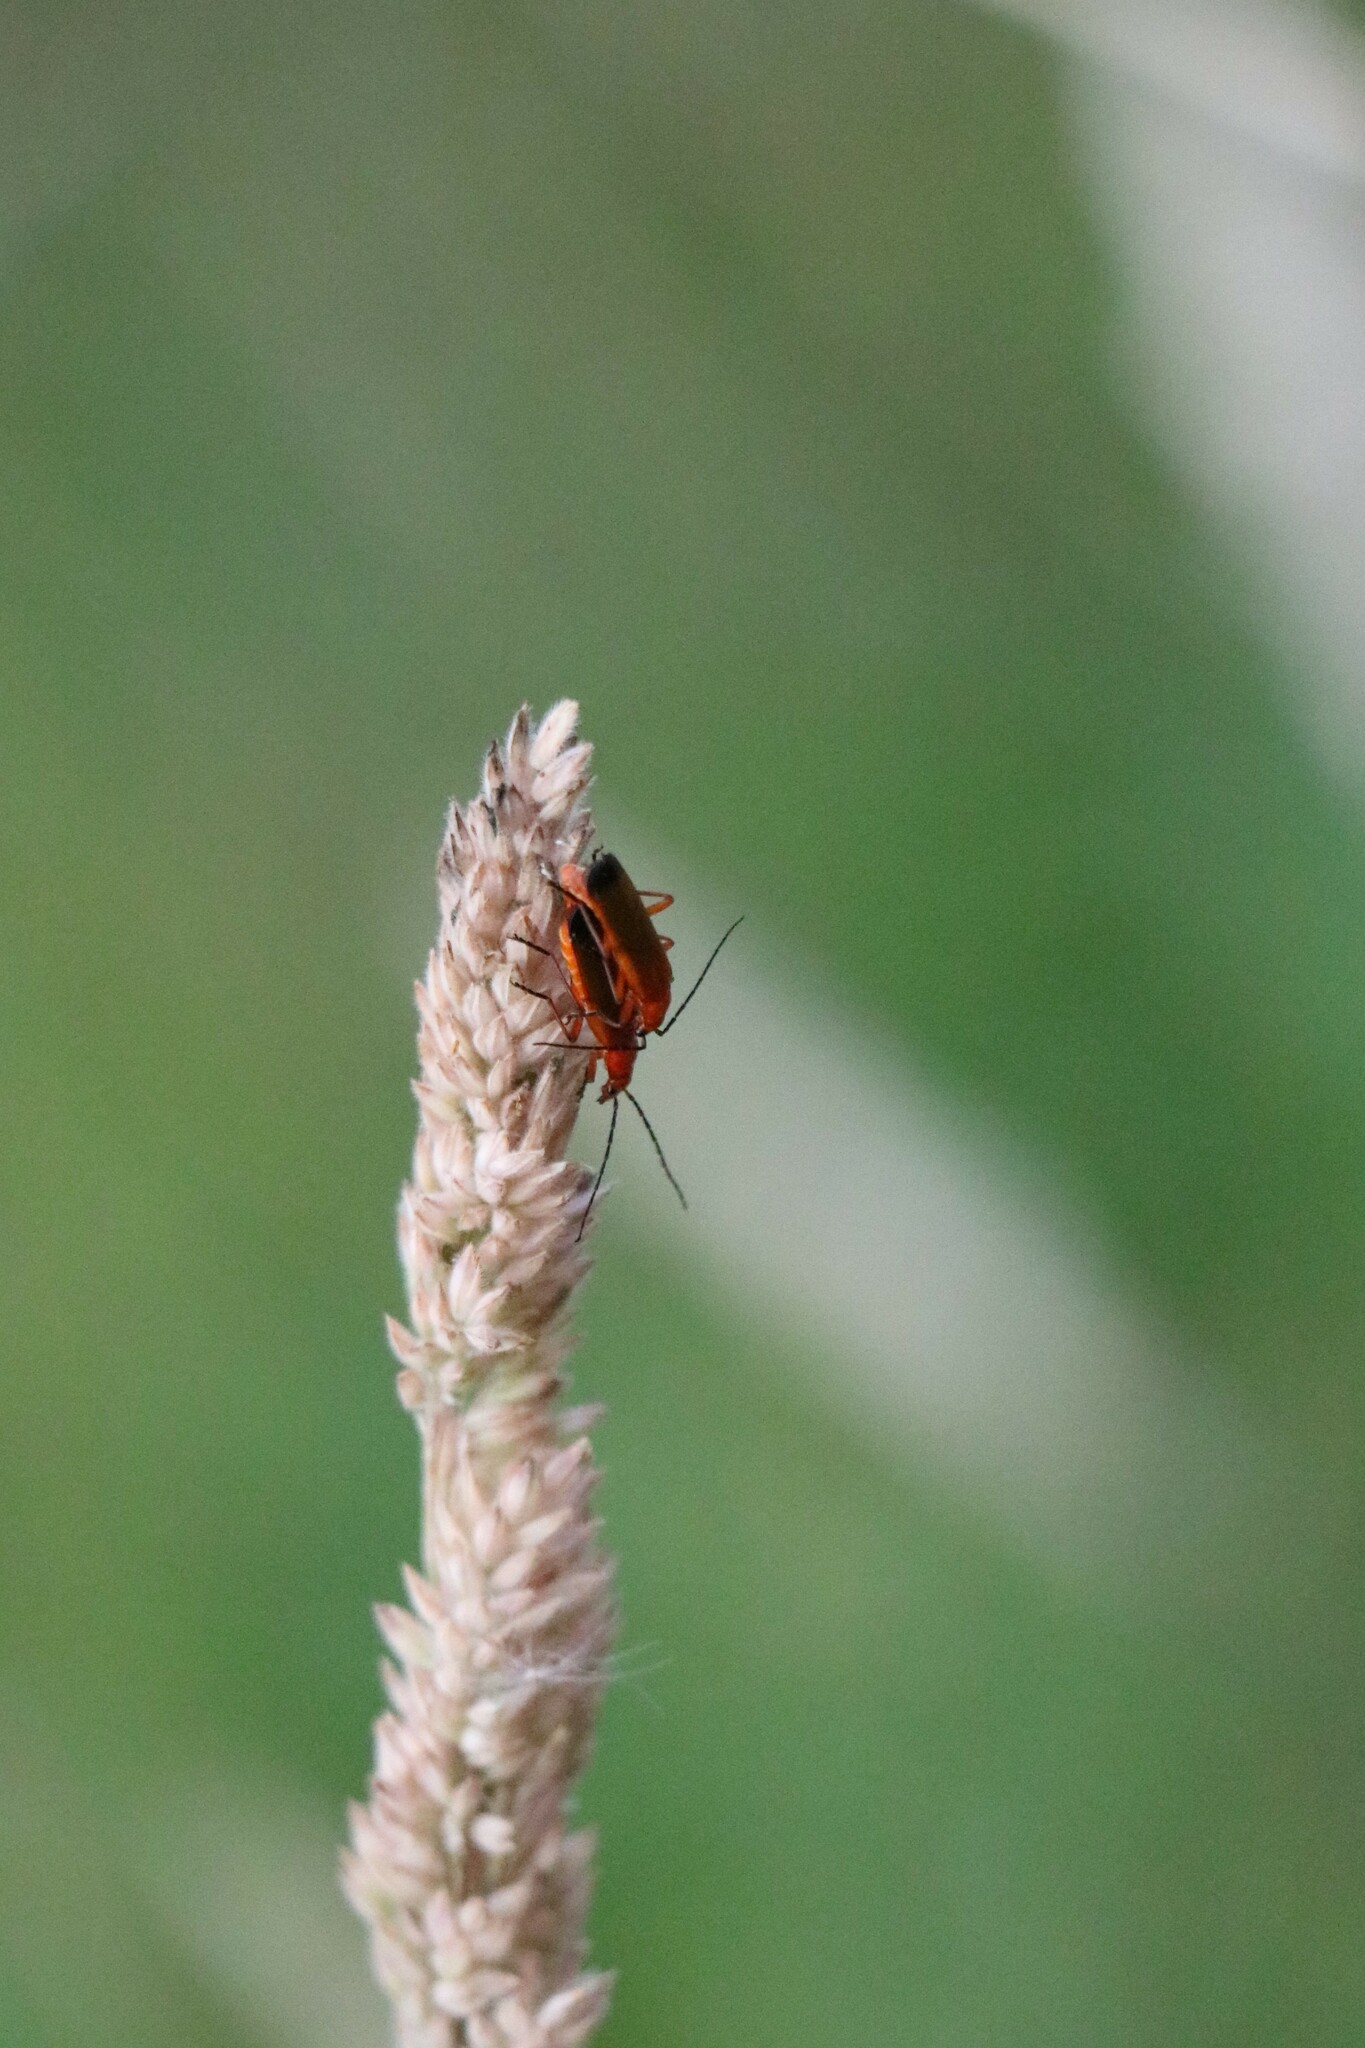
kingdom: Animalia
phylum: Arthropoda
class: Insecta
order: Coleoptera
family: Cantharidae
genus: Rhagonycha
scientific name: Rhagonycha fulva
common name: Common red soldier beetle
